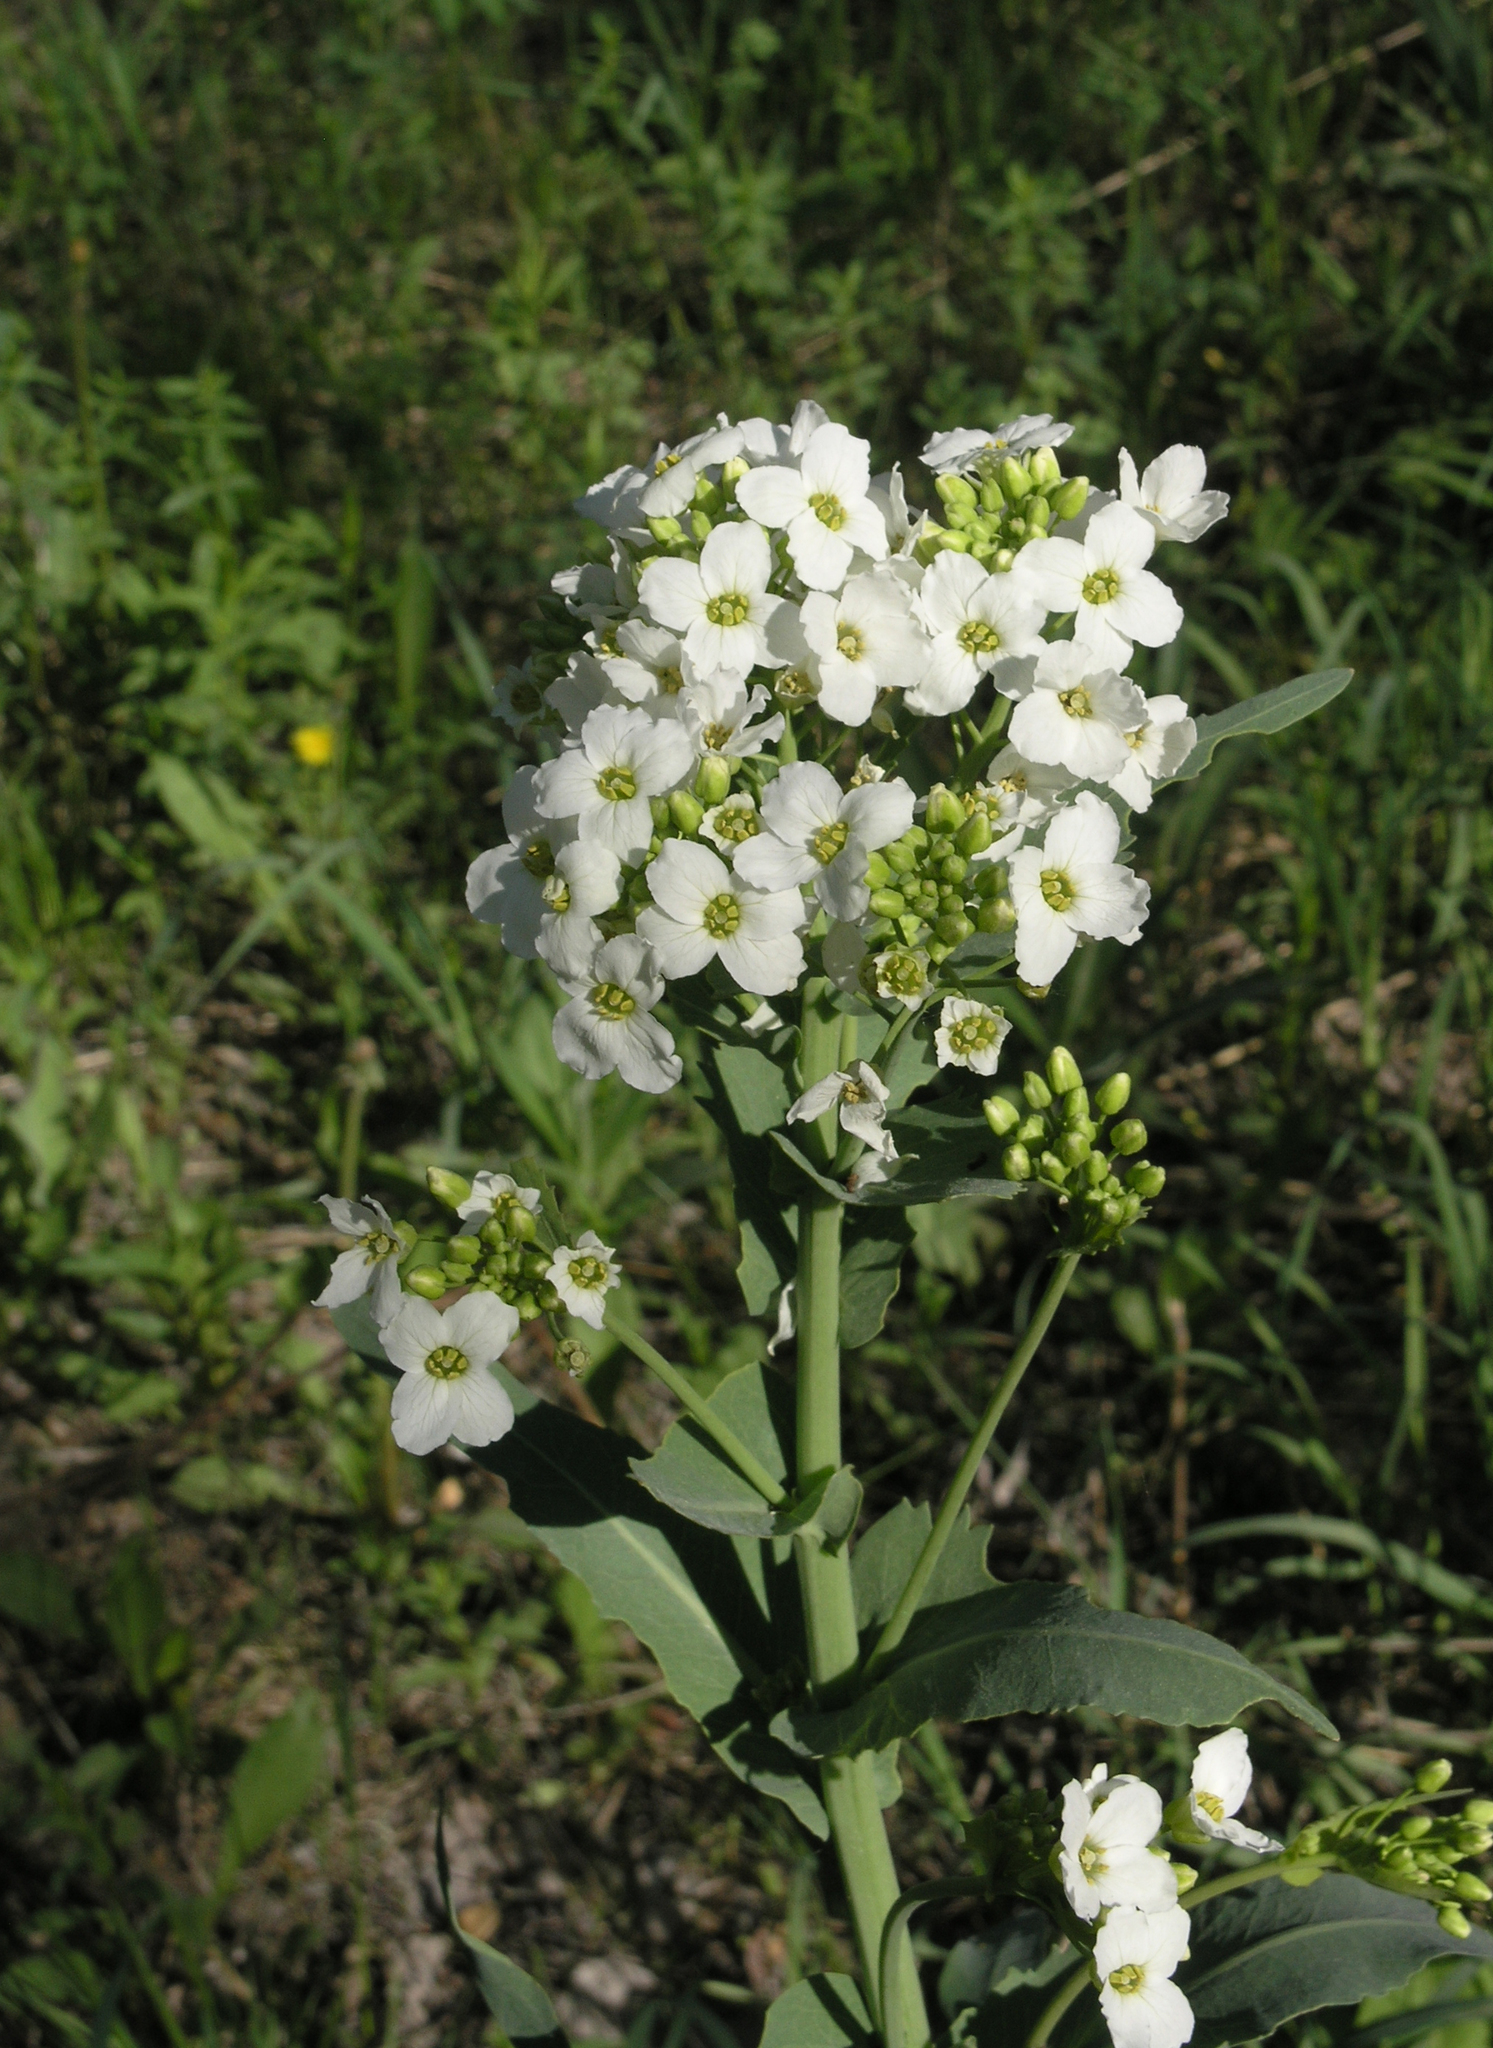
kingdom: Plantae
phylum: Tracheophyta
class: Magnoliopsida
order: Brassicales
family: Brassicaceae
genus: Armoracia
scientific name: Armoracia rusticana
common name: Horseradish
